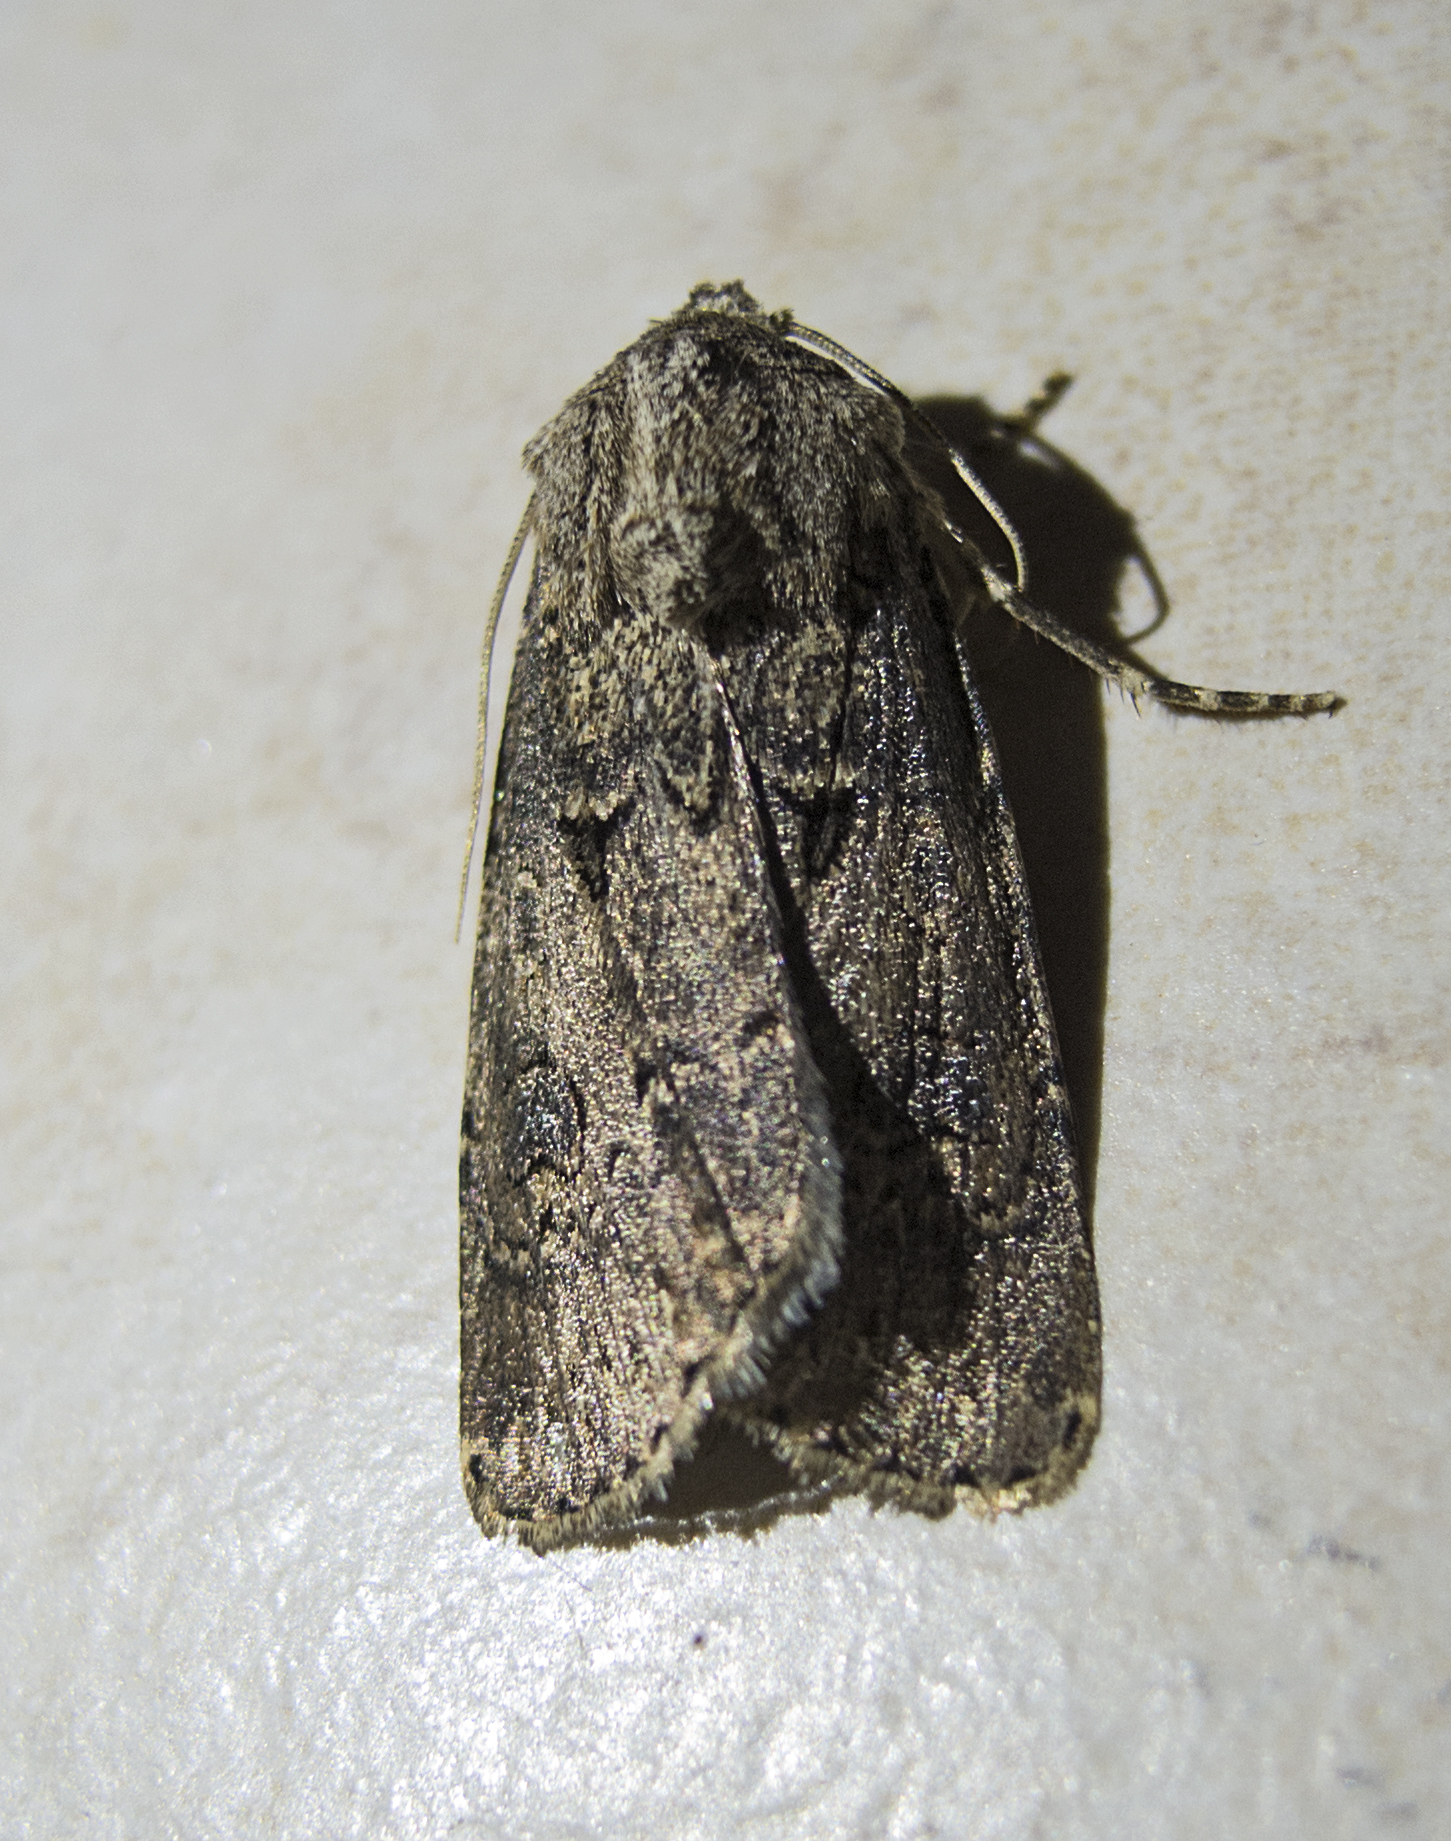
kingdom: Animalia
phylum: Arthropoda
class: Insecta
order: Lepidoptera
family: Noctuidae
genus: Agrotis
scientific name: Agrotis bigramma
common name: Great dart
